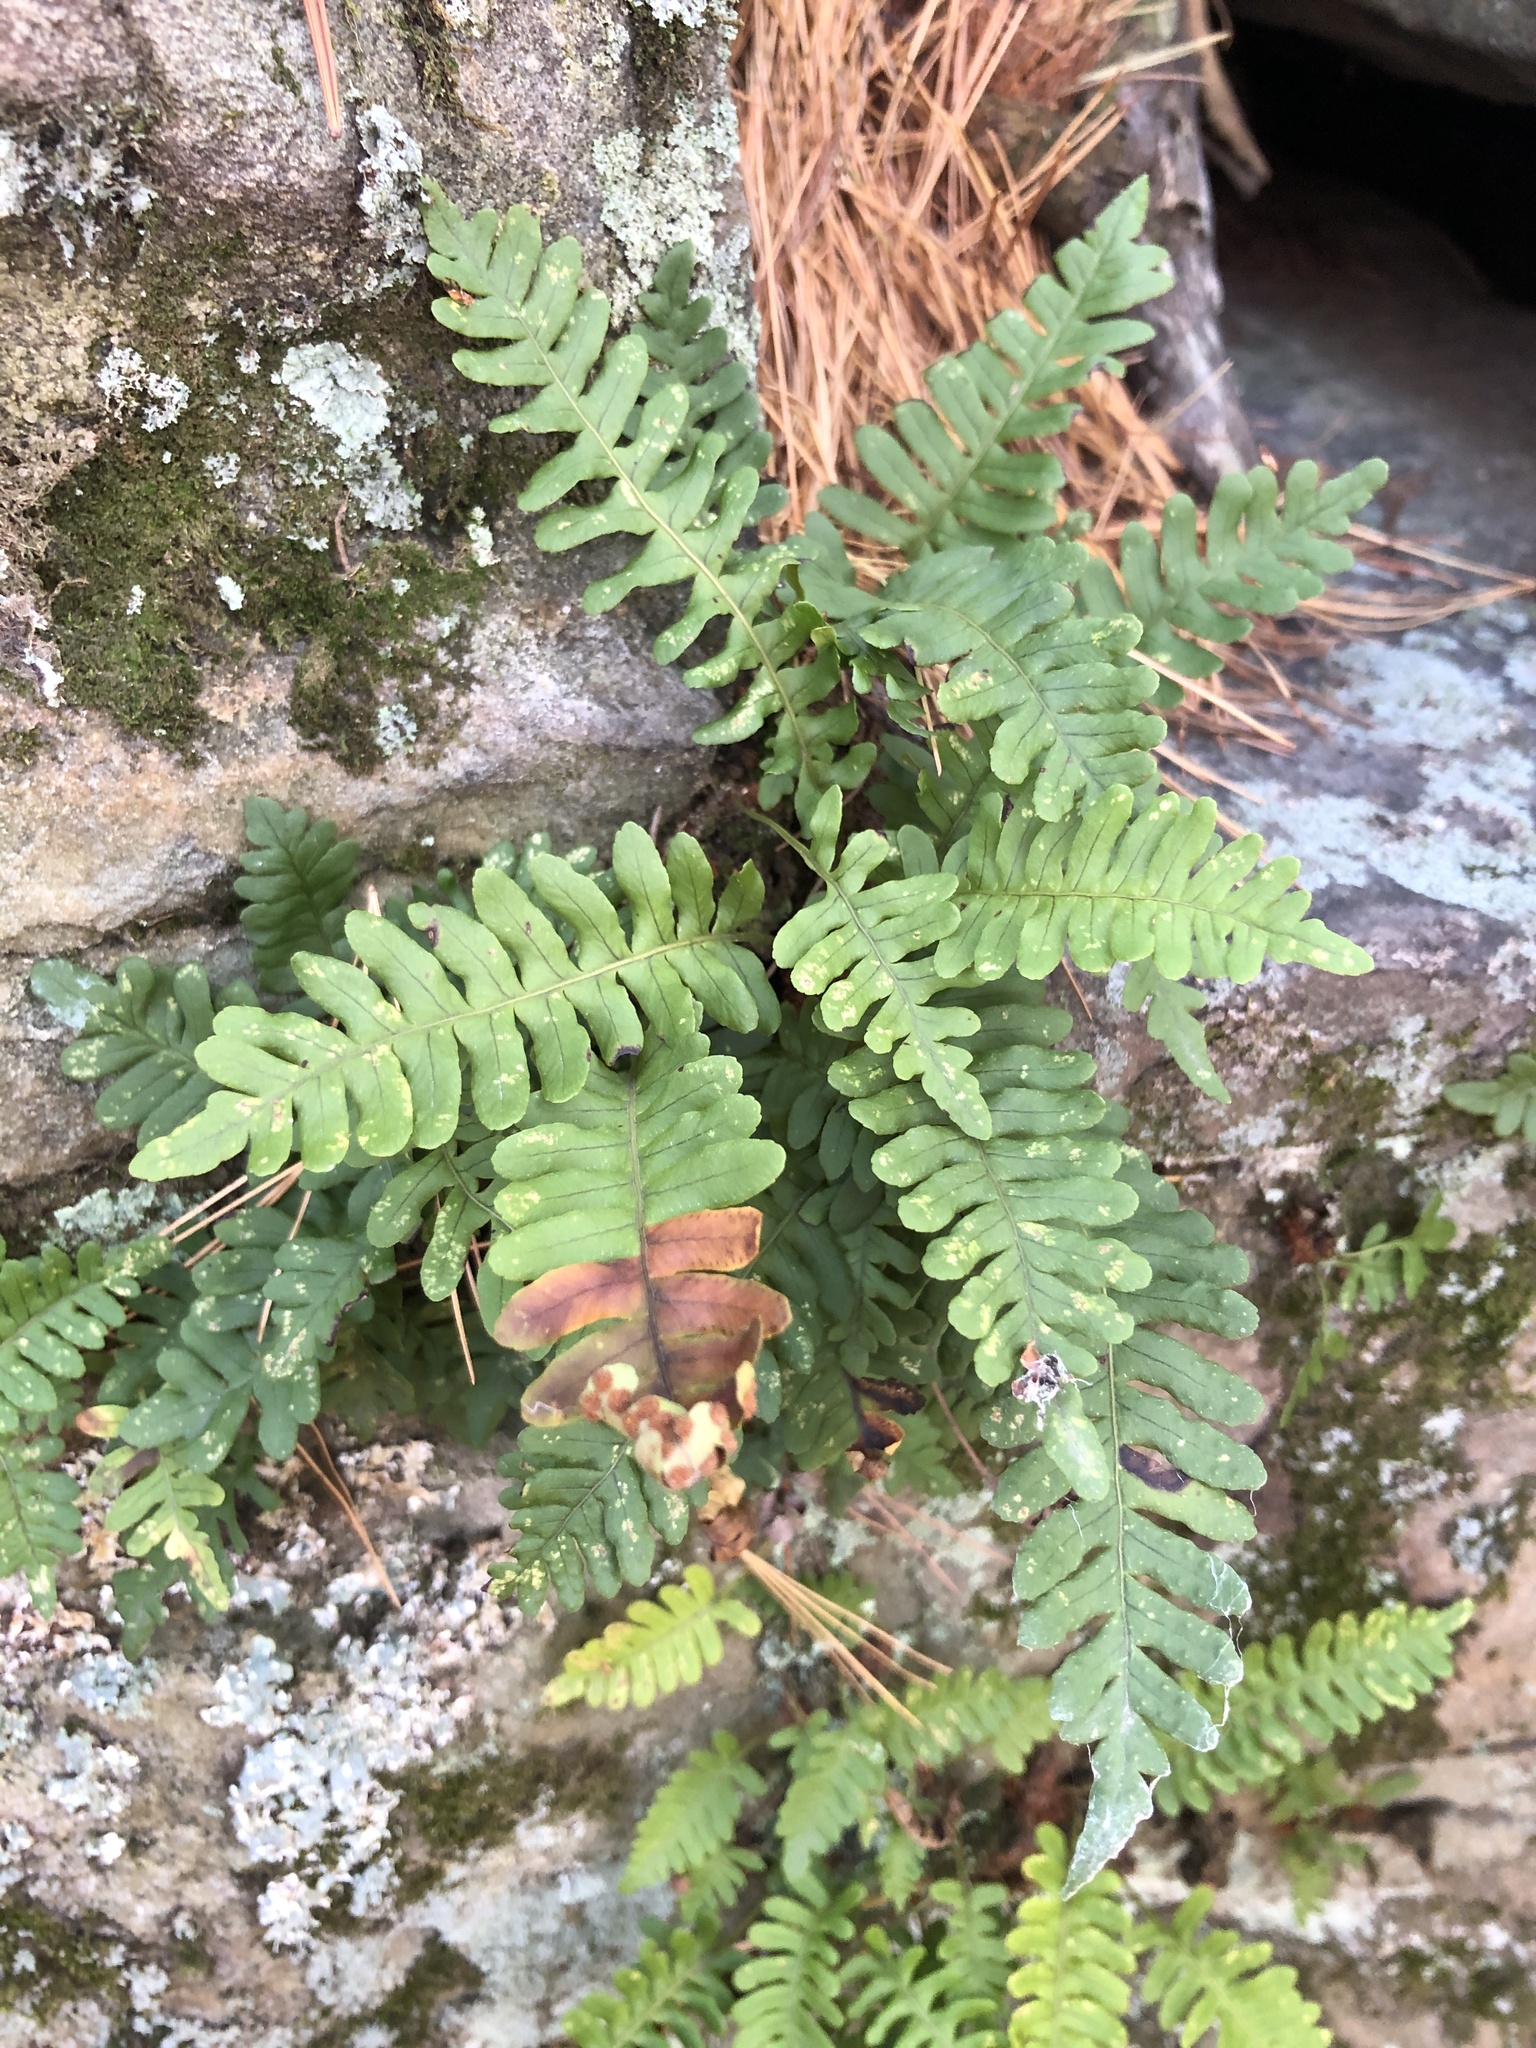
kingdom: Plantae
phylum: Tracheophyta
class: Polypodiopsida
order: Polypodiales
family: Polypodiaceae
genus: Polypodium
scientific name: Polypodium virginianum
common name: American wall fern
